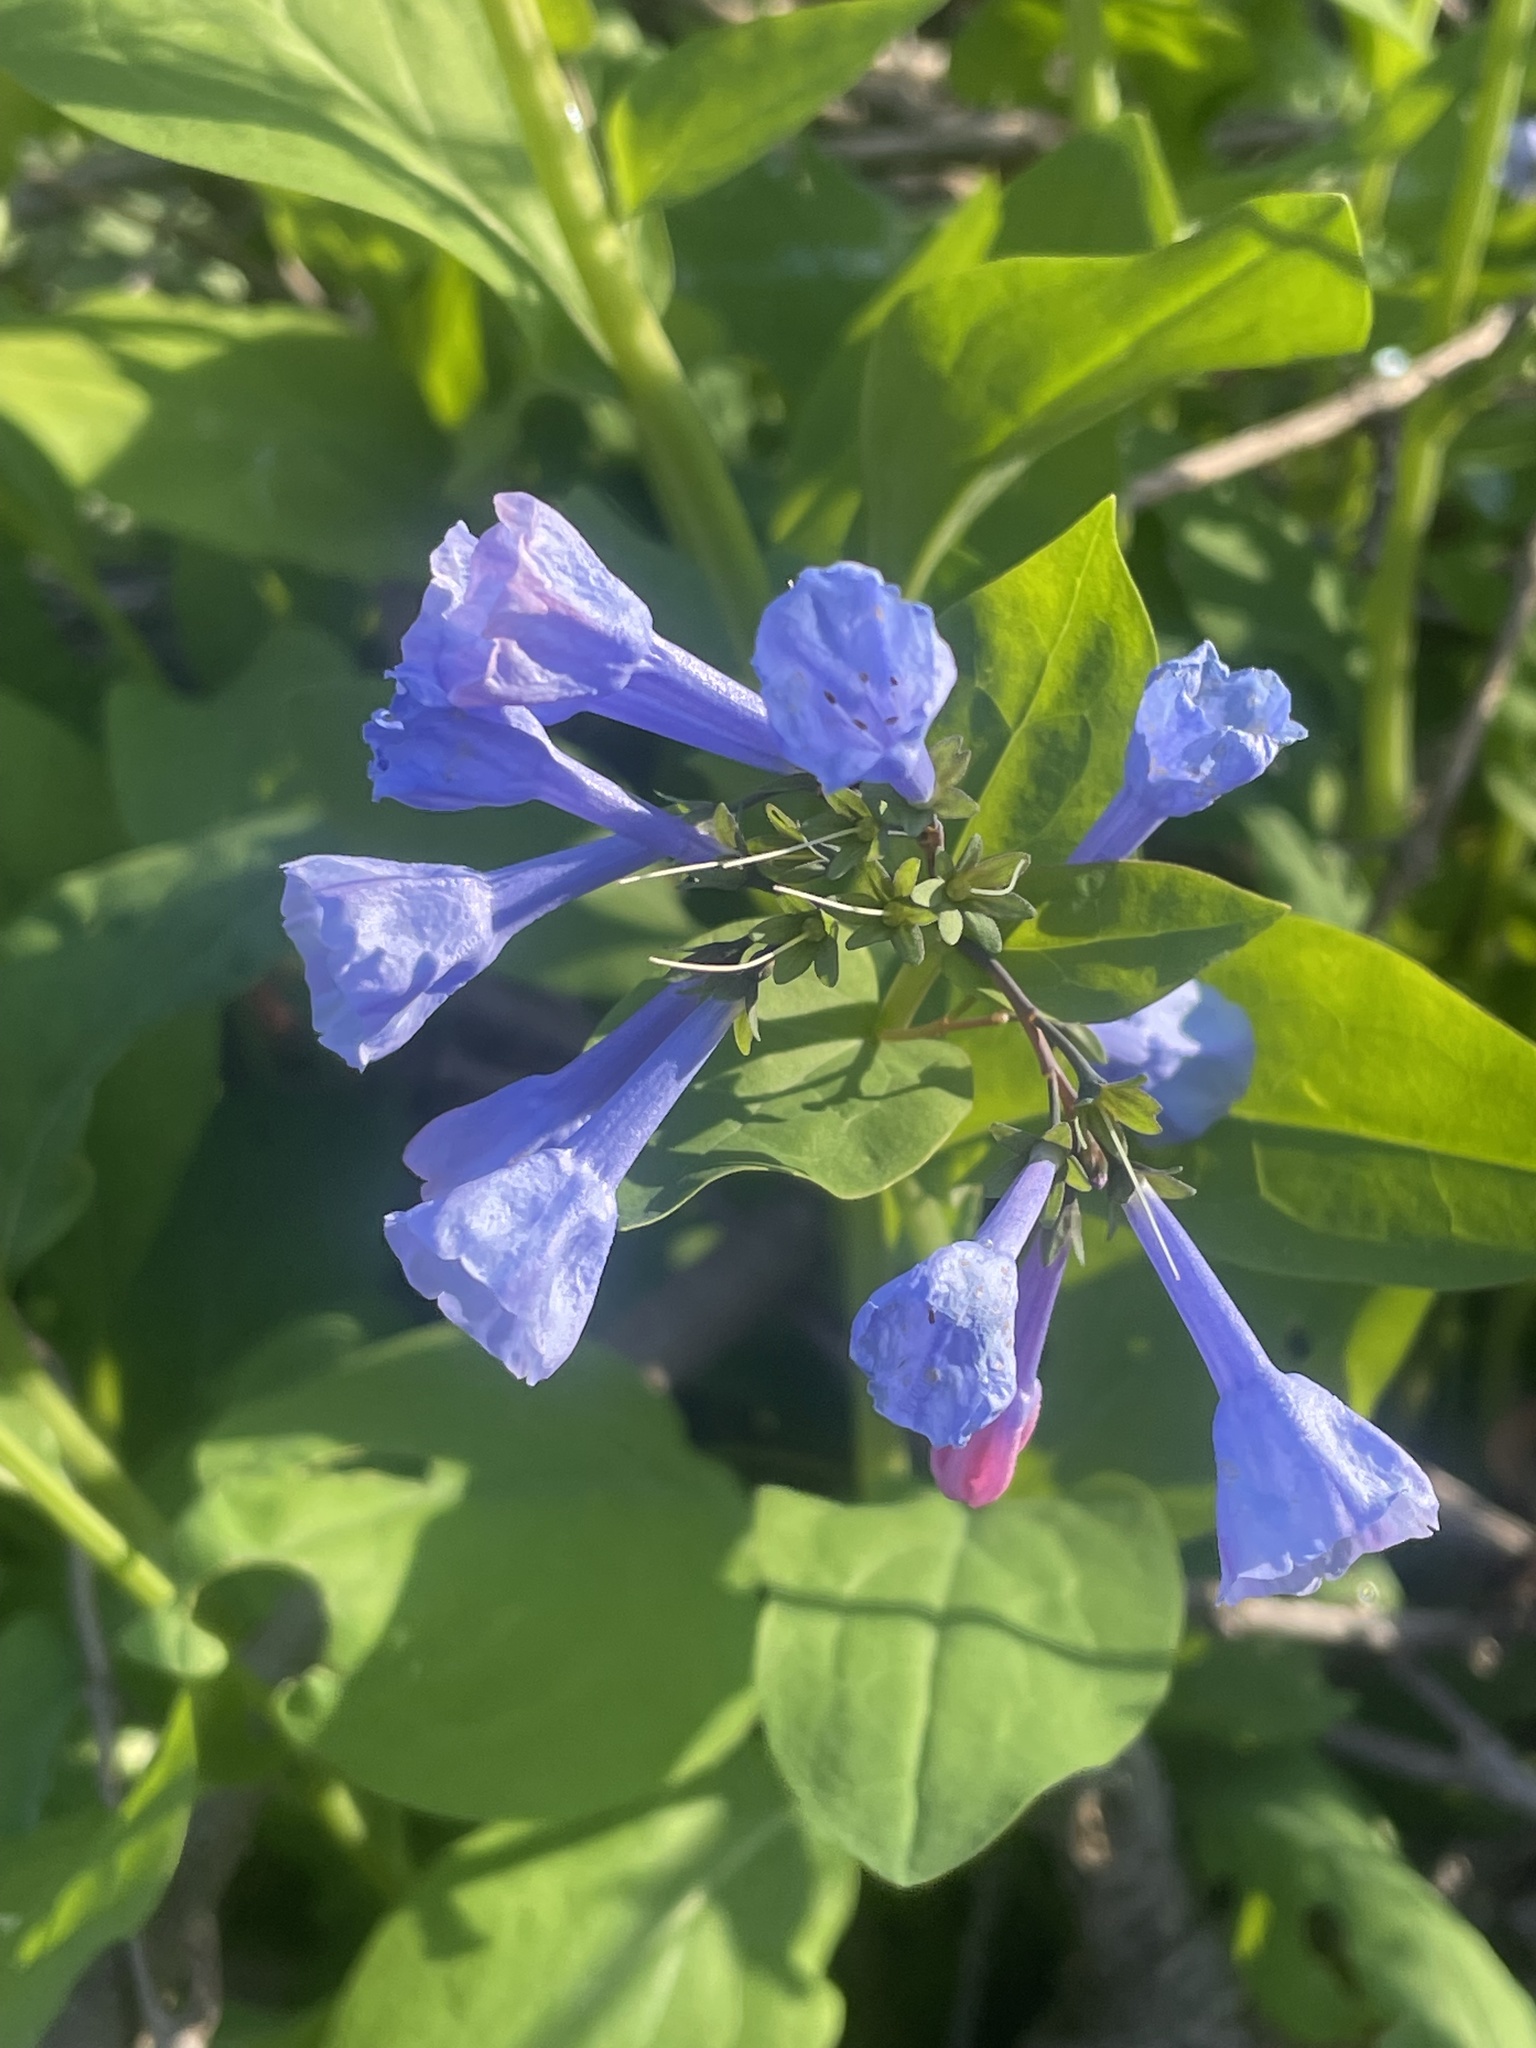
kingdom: Plantae
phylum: Tracheophyta
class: Magnoliopsida
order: Boraginales
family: Boraginaceae
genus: Mertensia
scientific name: Mertensia virginica
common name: Virginia bluebells
